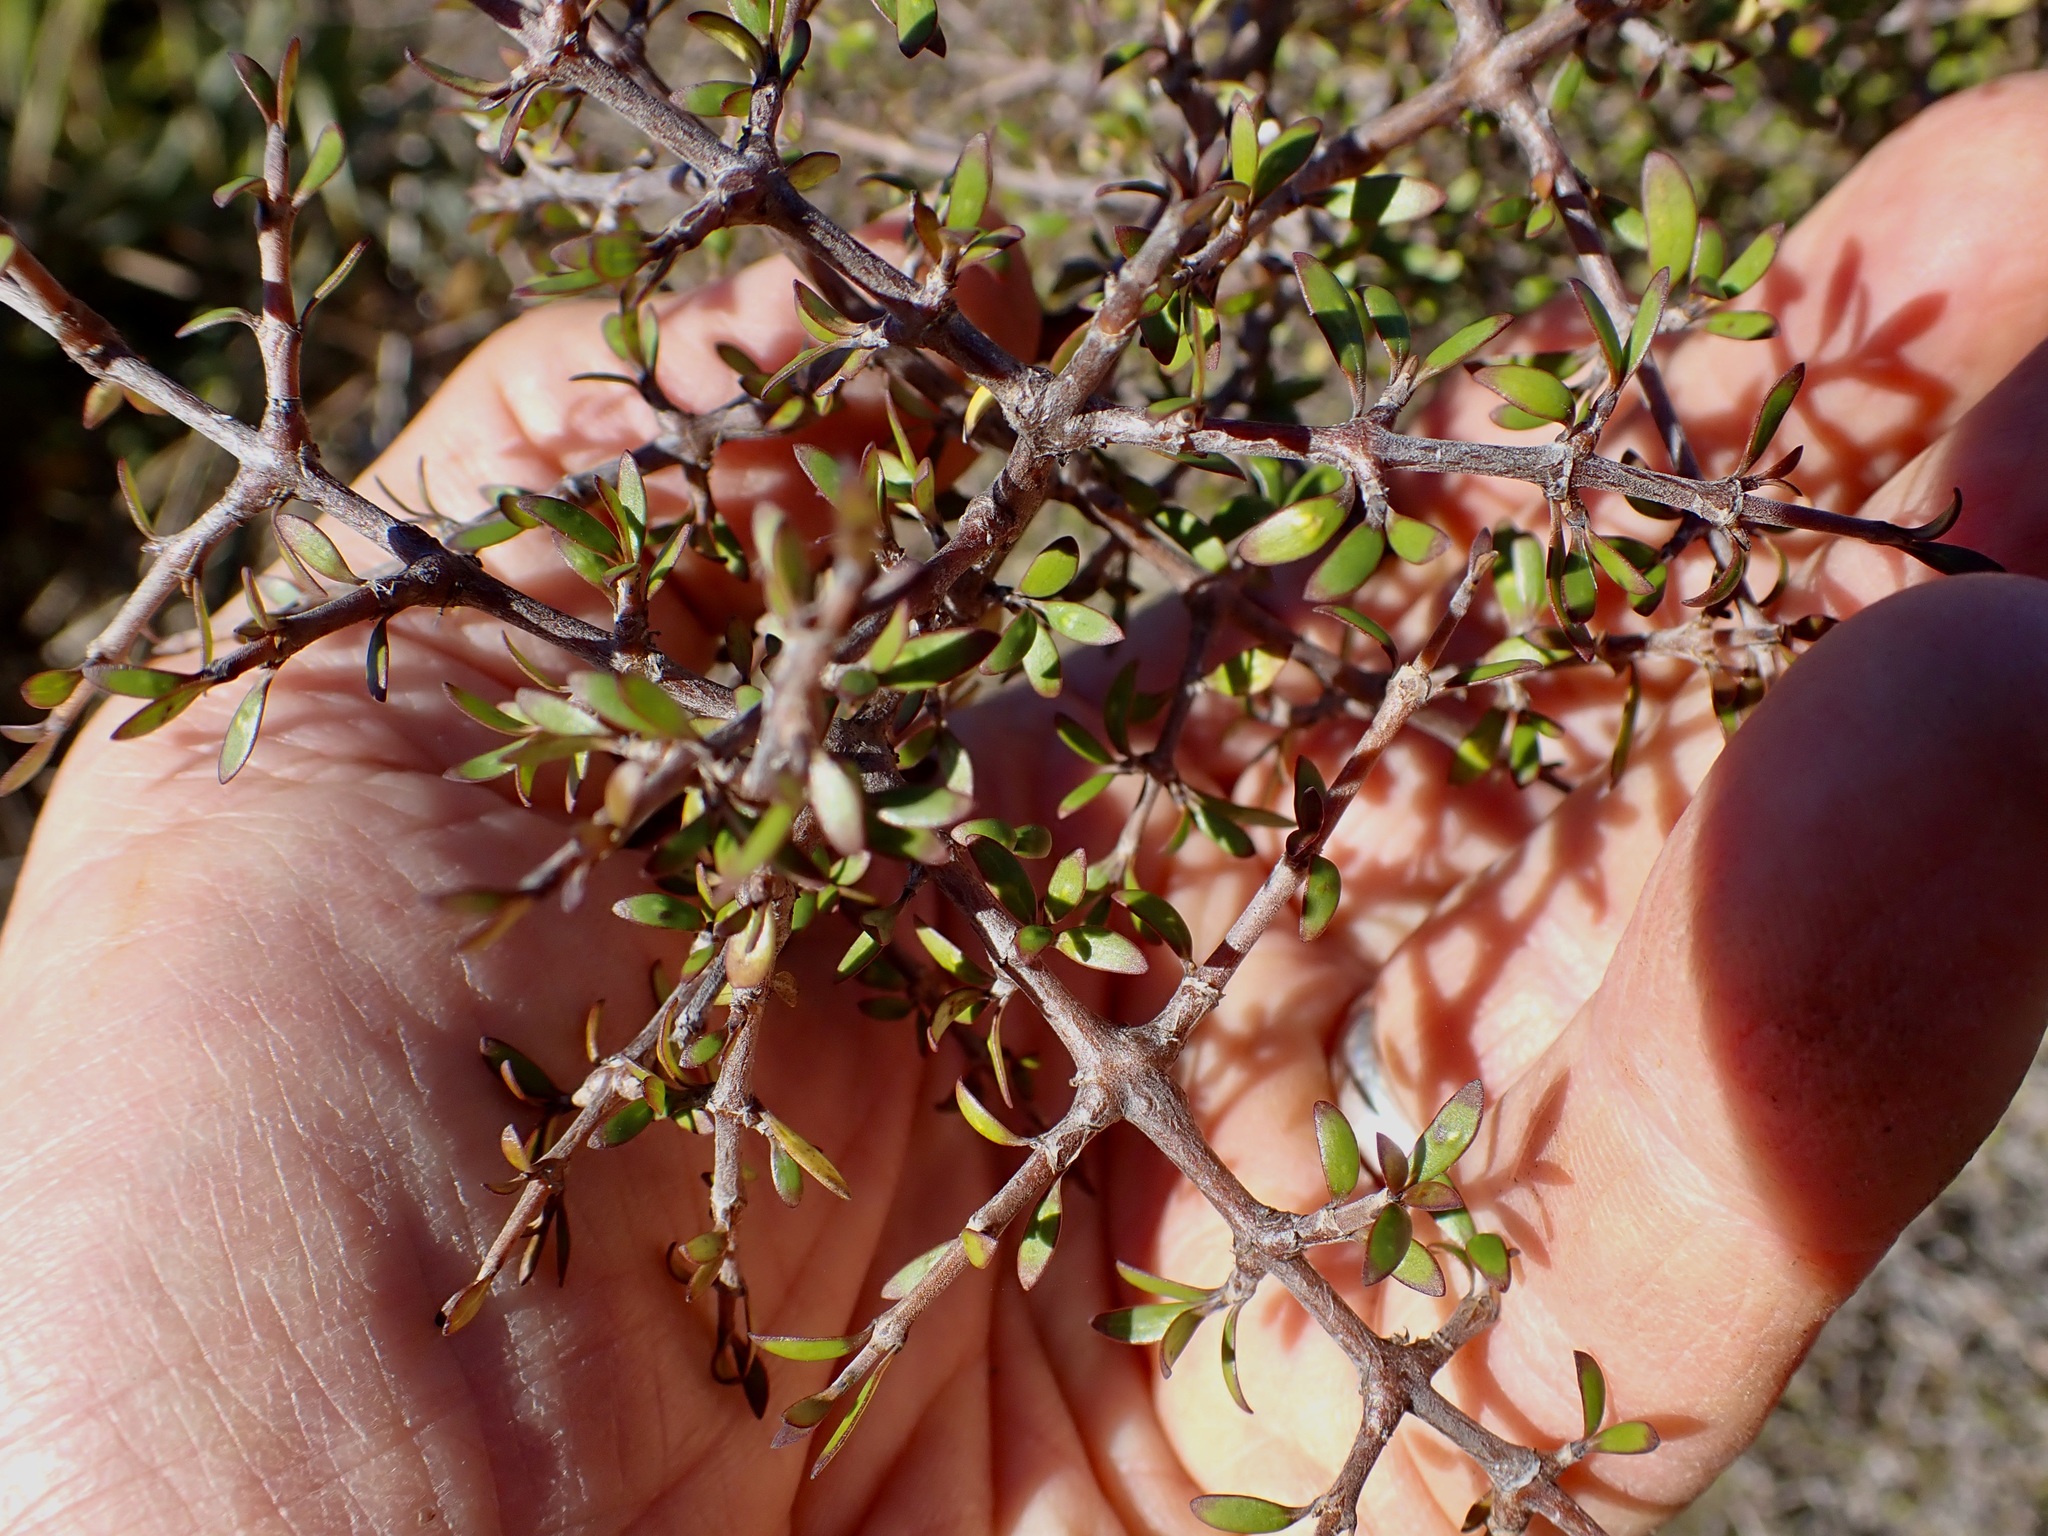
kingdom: Plantae
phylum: Tracheophyta
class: Magnoliopsida
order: Gentianales
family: Rubiaceae
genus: Coprosma
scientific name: Coprosma propinqua
